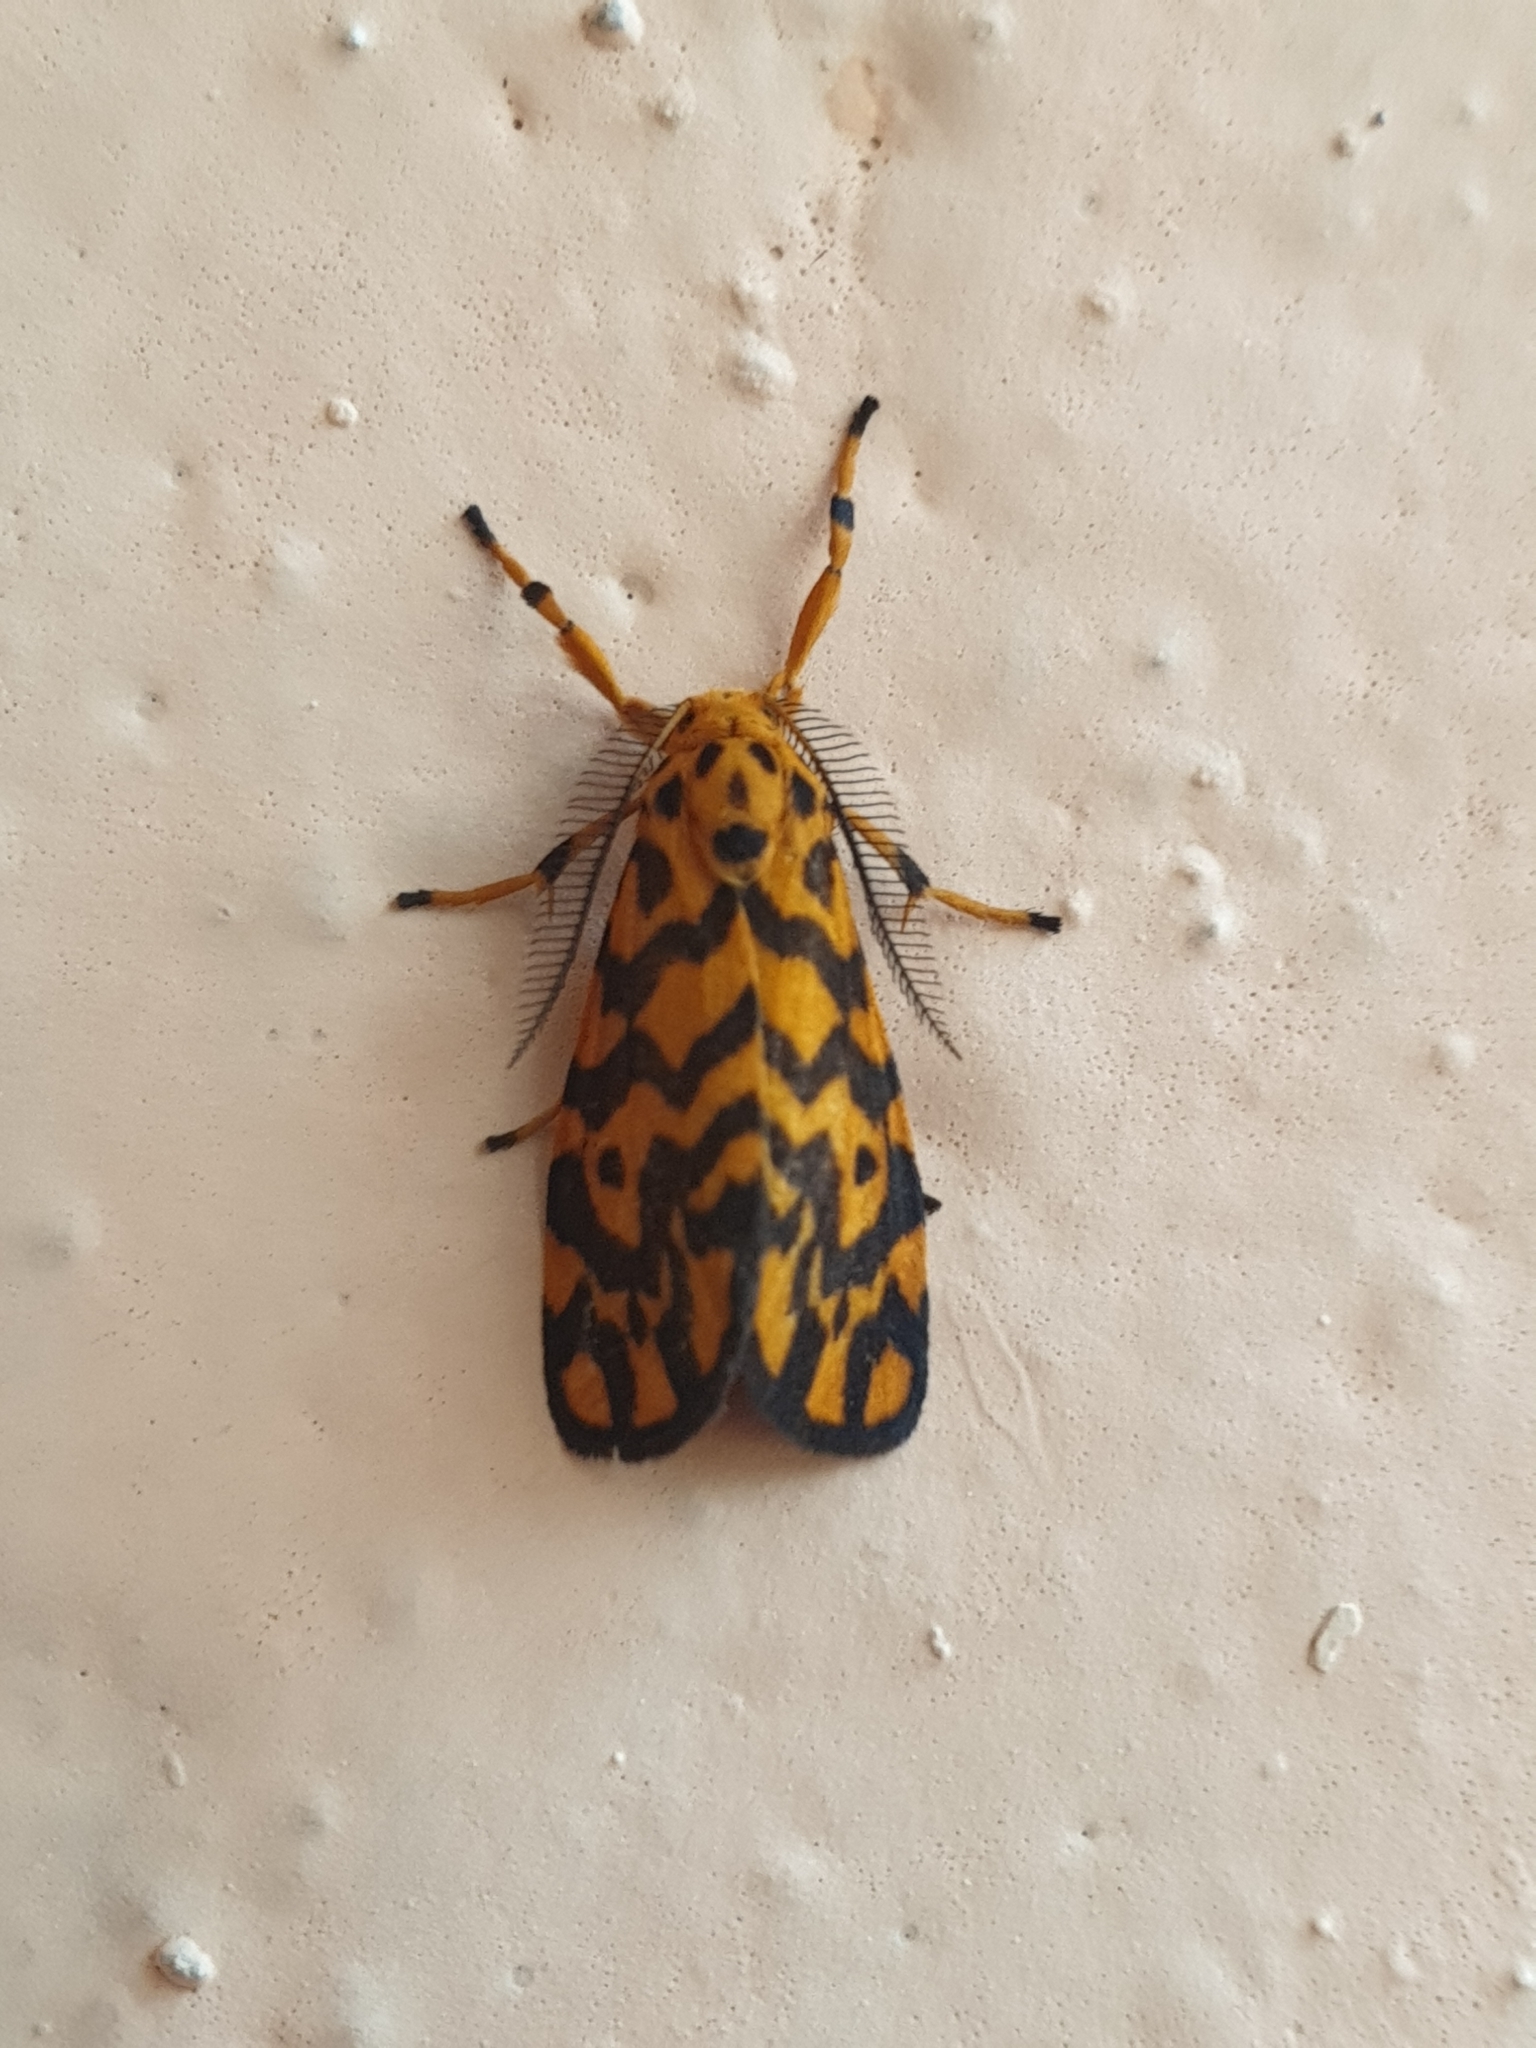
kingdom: Animalia
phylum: Arthropoda
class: Insecta
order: Lepidoptera
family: Erebidae
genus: Nepita
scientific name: Nepita conferta
